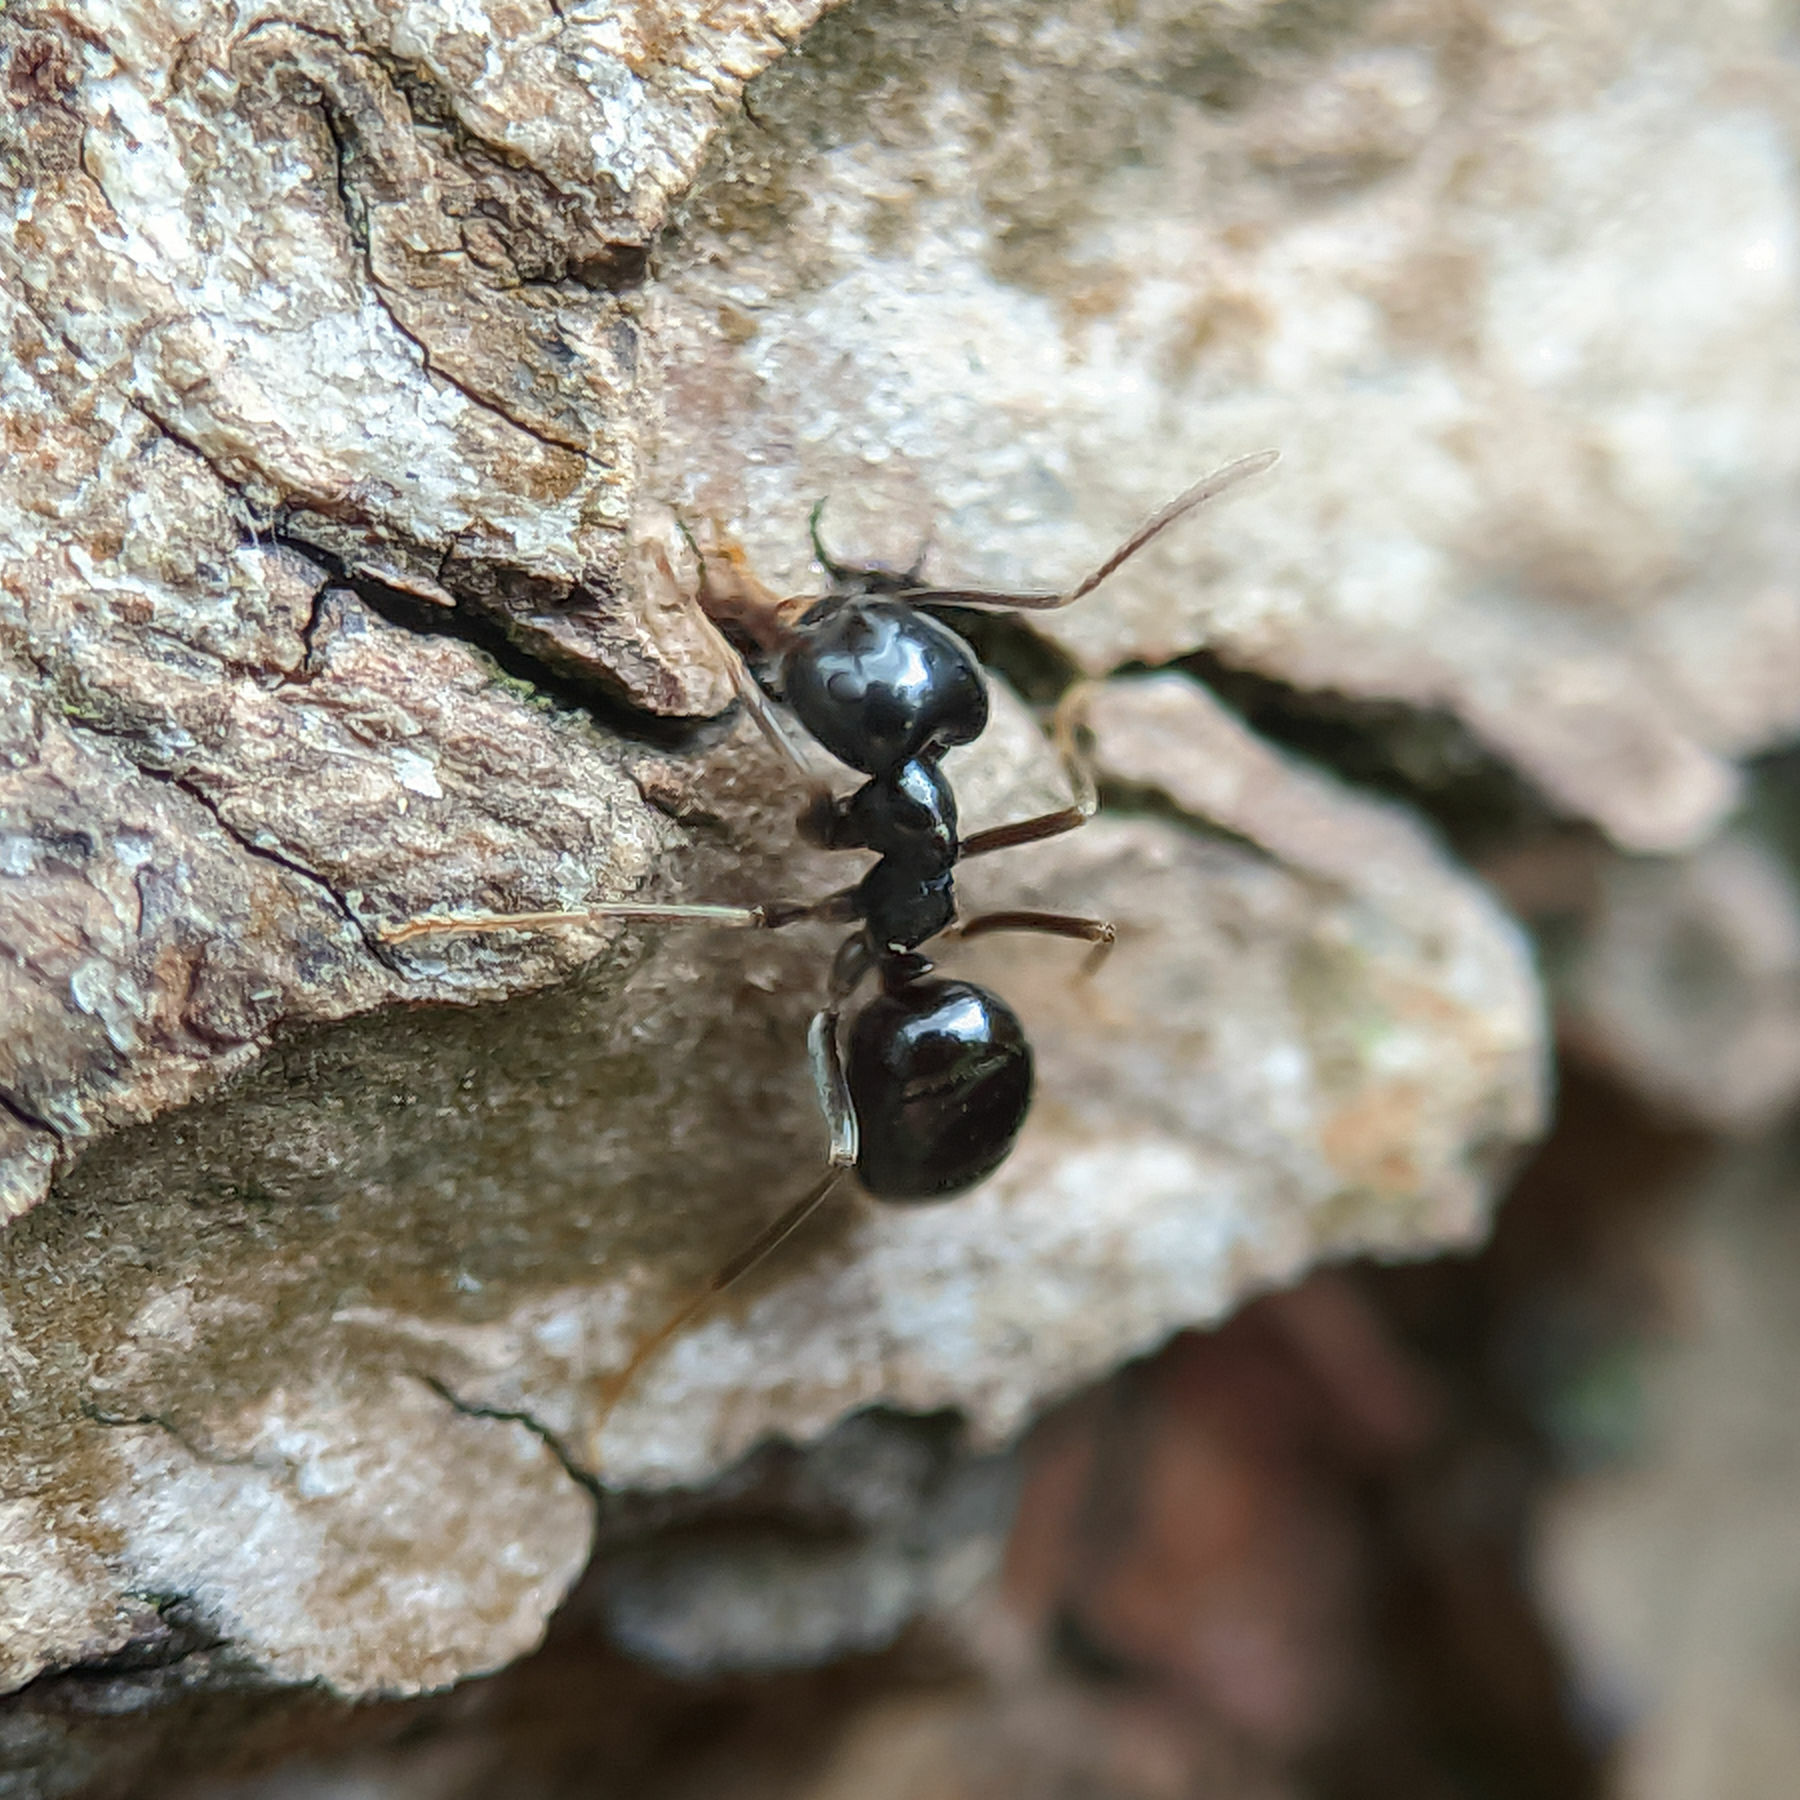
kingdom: Animalia
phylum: Arthropoda
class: Insecta
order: Hymenoptera
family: Formicidae
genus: Lasius
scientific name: Lasius fuliginosus
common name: Jet ant
